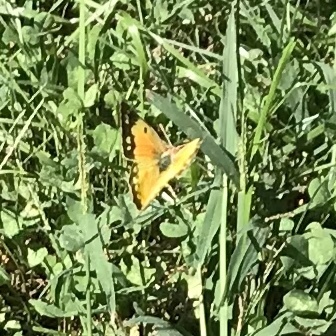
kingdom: Animalia
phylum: Arthropoda
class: Insecta
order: Lepidoptera
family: Pieridae
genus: Colias
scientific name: Colias eurytheme
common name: Alfalfa butterfly
